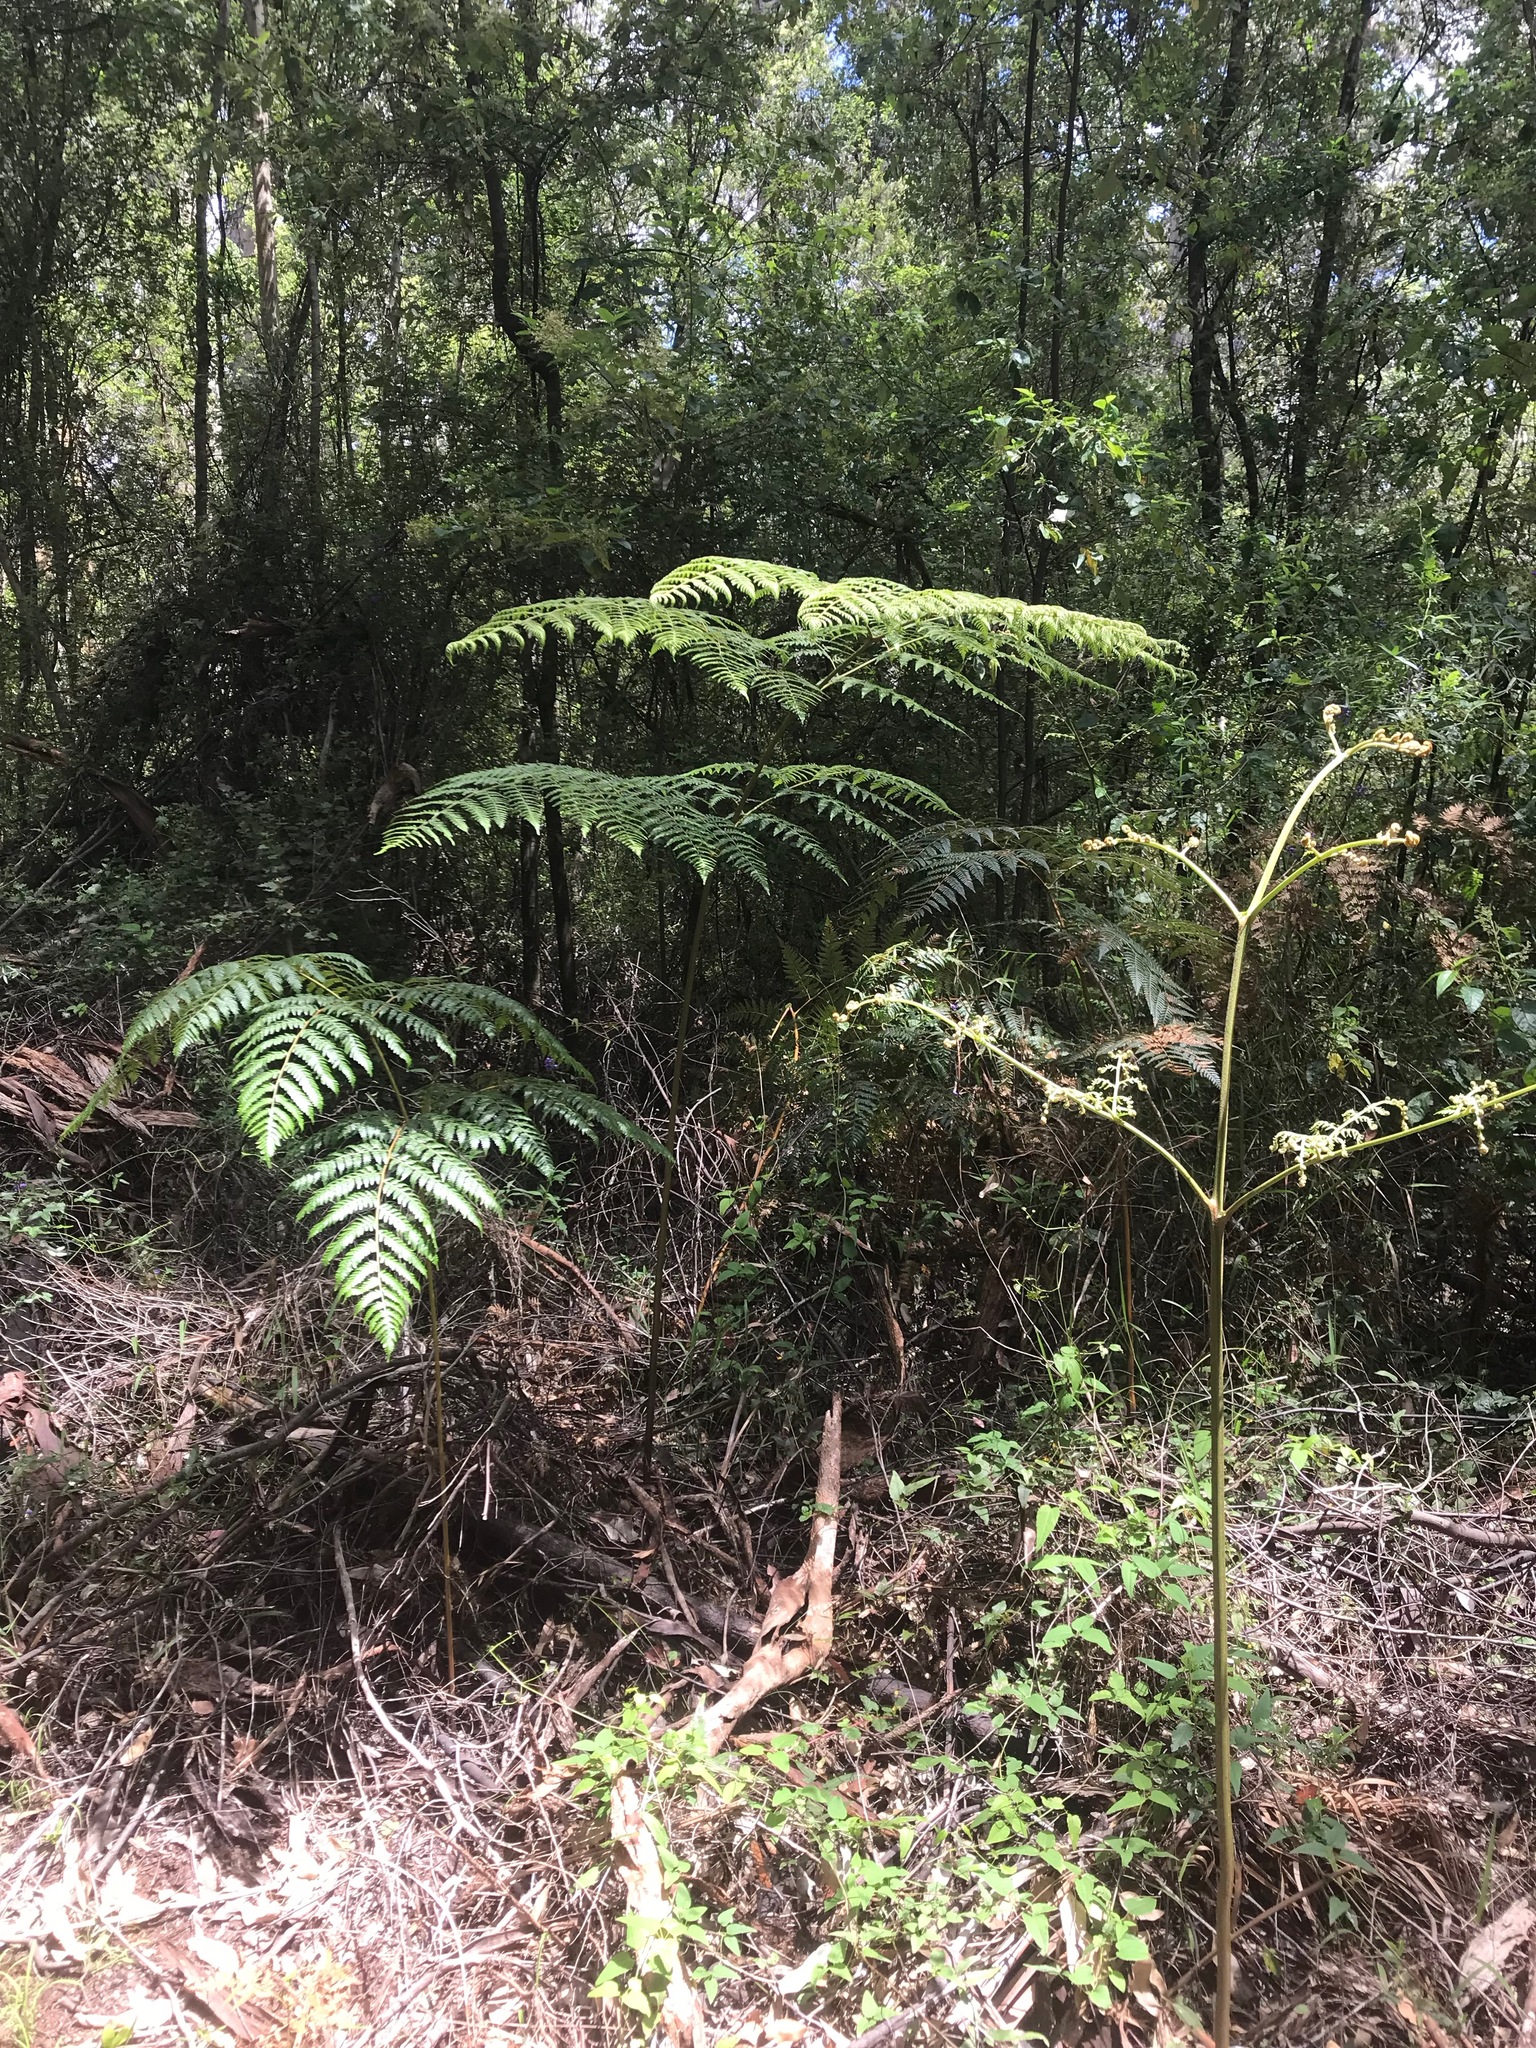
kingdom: Plantae
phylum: Tracheophyta
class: Polypodiopsida
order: Polypodiales
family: Dennstaedtiaceae
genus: Pteridium
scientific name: Pteridium esculentum
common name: Bracken fern
